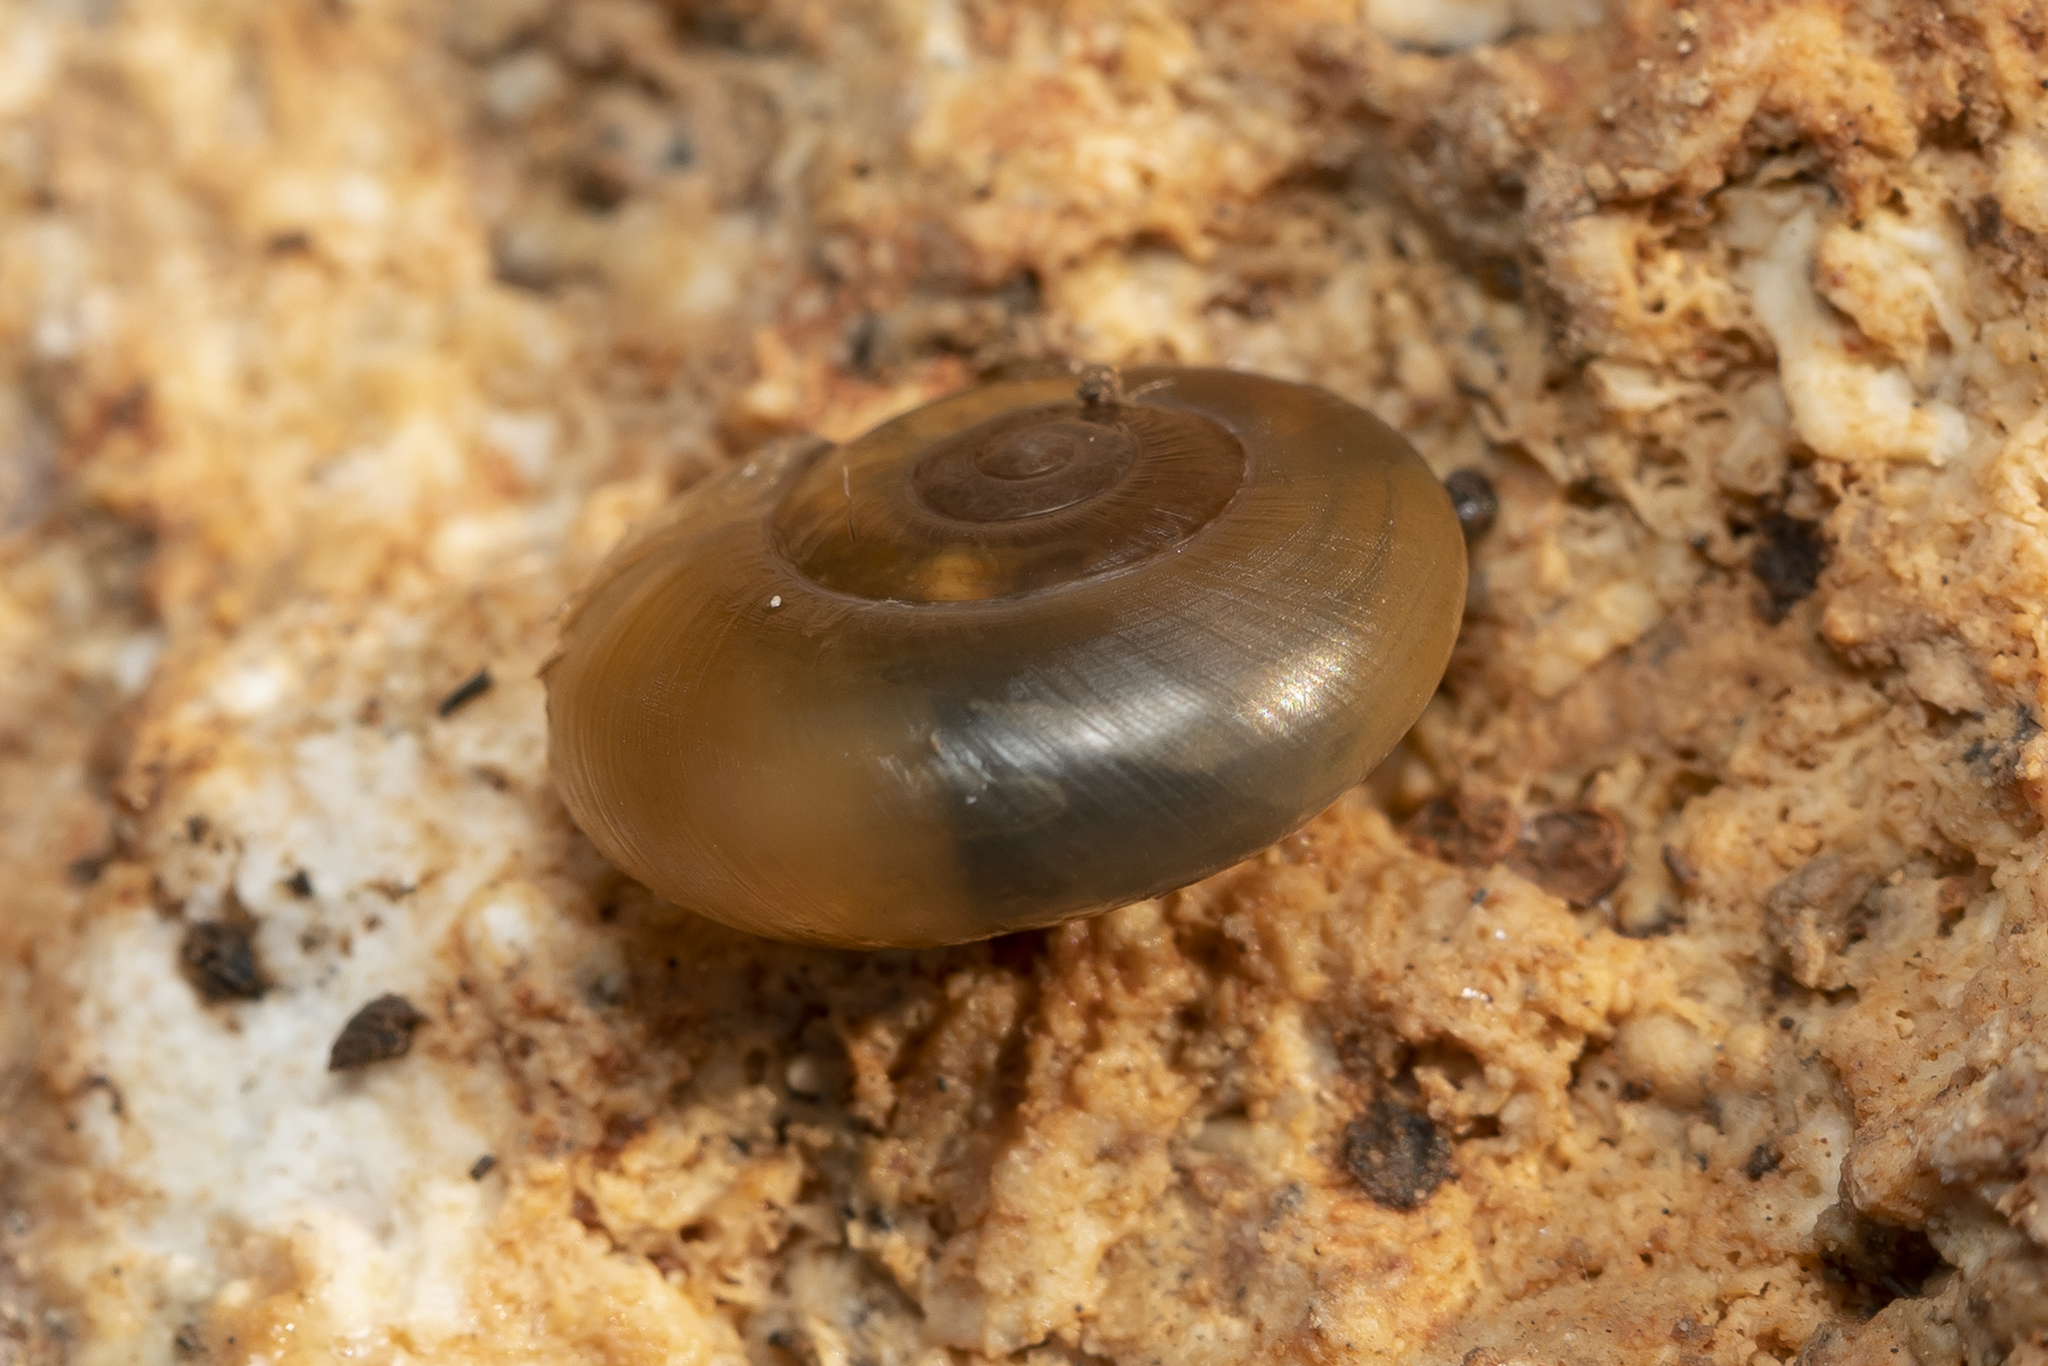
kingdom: Animalia
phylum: Mollusca
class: Gastropoda
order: Stylommatophora
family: Oxychilidae
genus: Eopolita
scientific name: Eopolita protensa
